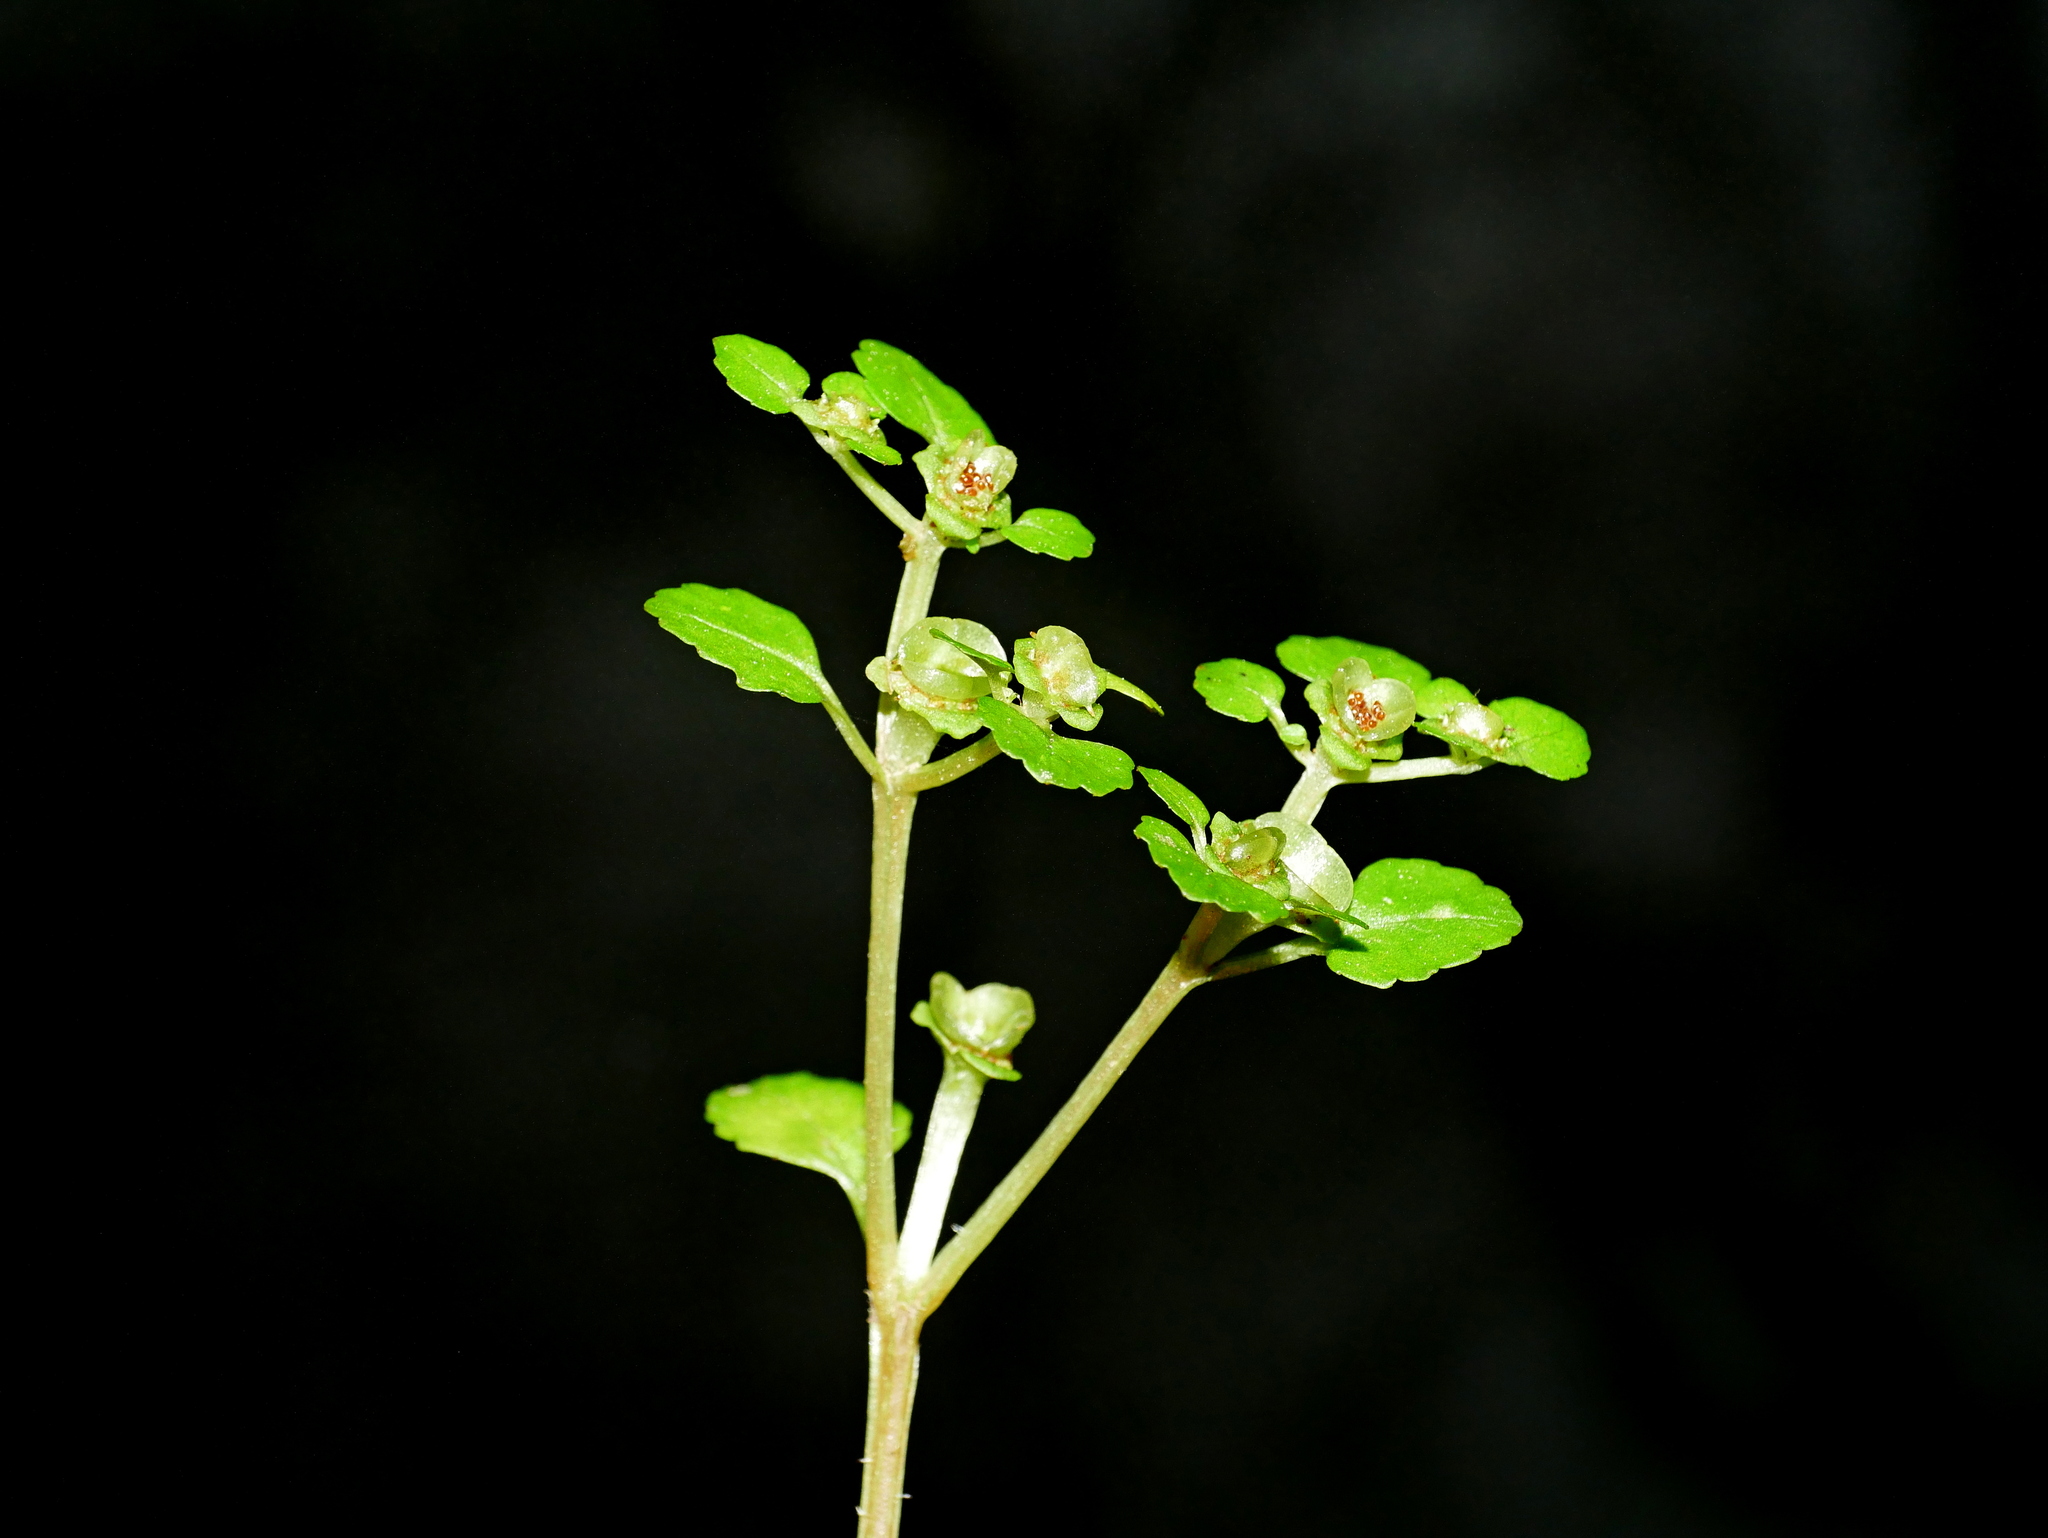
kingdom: Plantae
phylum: Tracheophyta
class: Magnoliopsida
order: Saxifragales
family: Saxifragaceae
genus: Chrysosplenium
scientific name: Chrysosplenium japonicum
